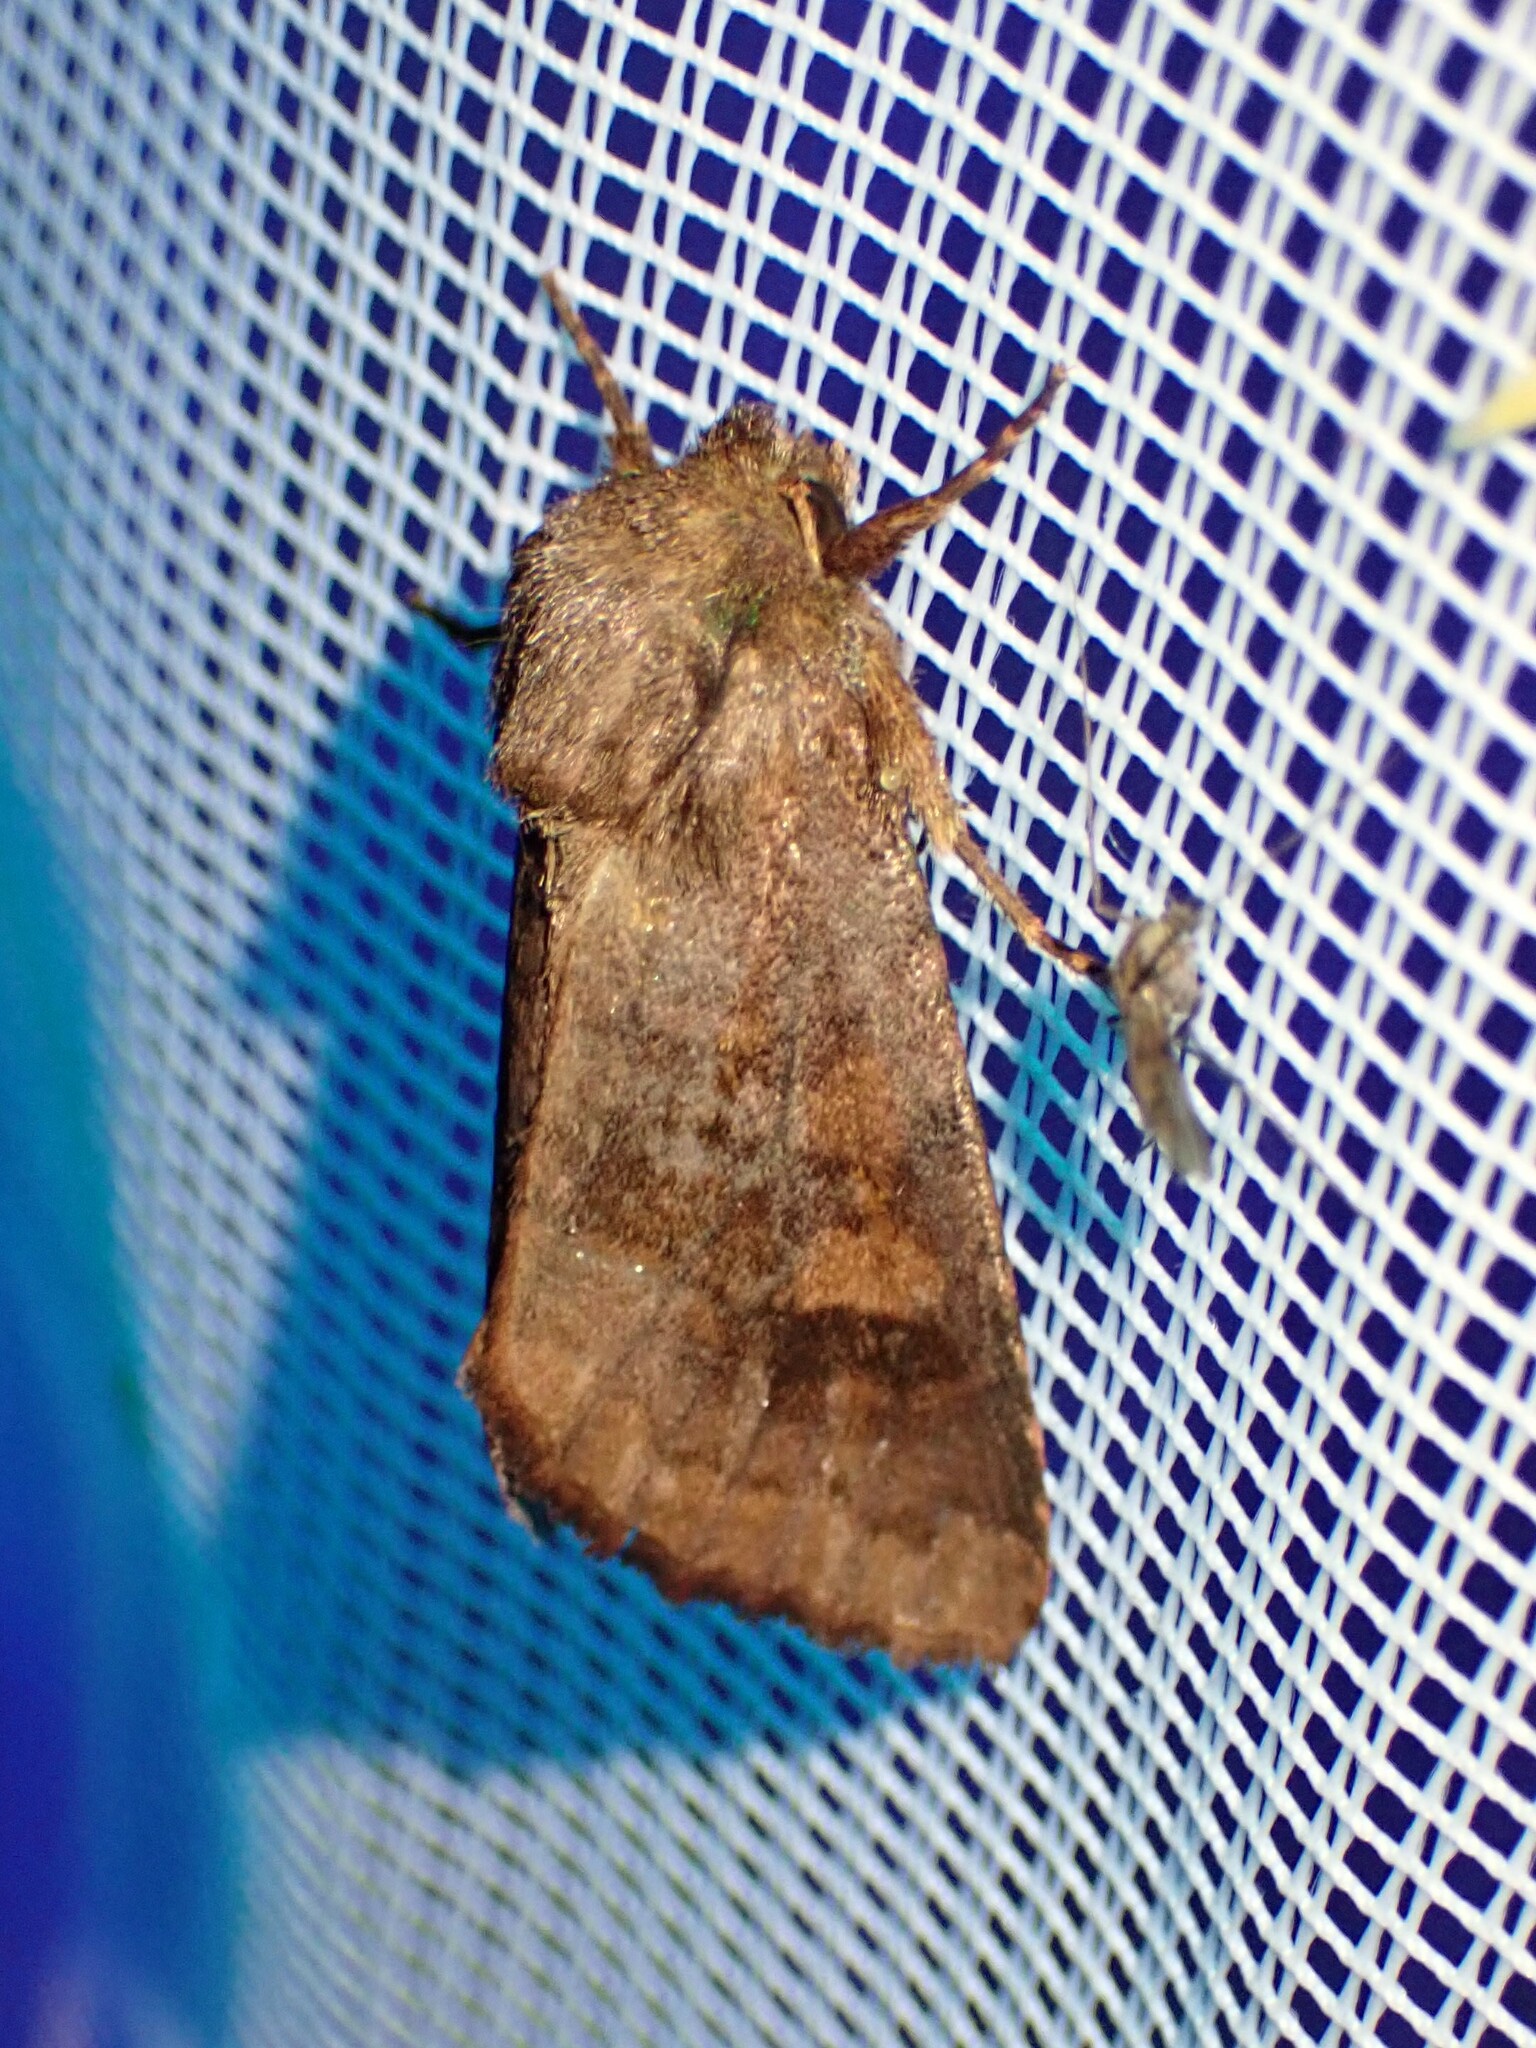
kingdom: Animalia
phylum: Arthropoda
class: Insecta
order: Lepidoptera
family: Noctuidae
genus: Nephelodes
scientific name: Nephelodes minians
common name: Bronzed cutworm
